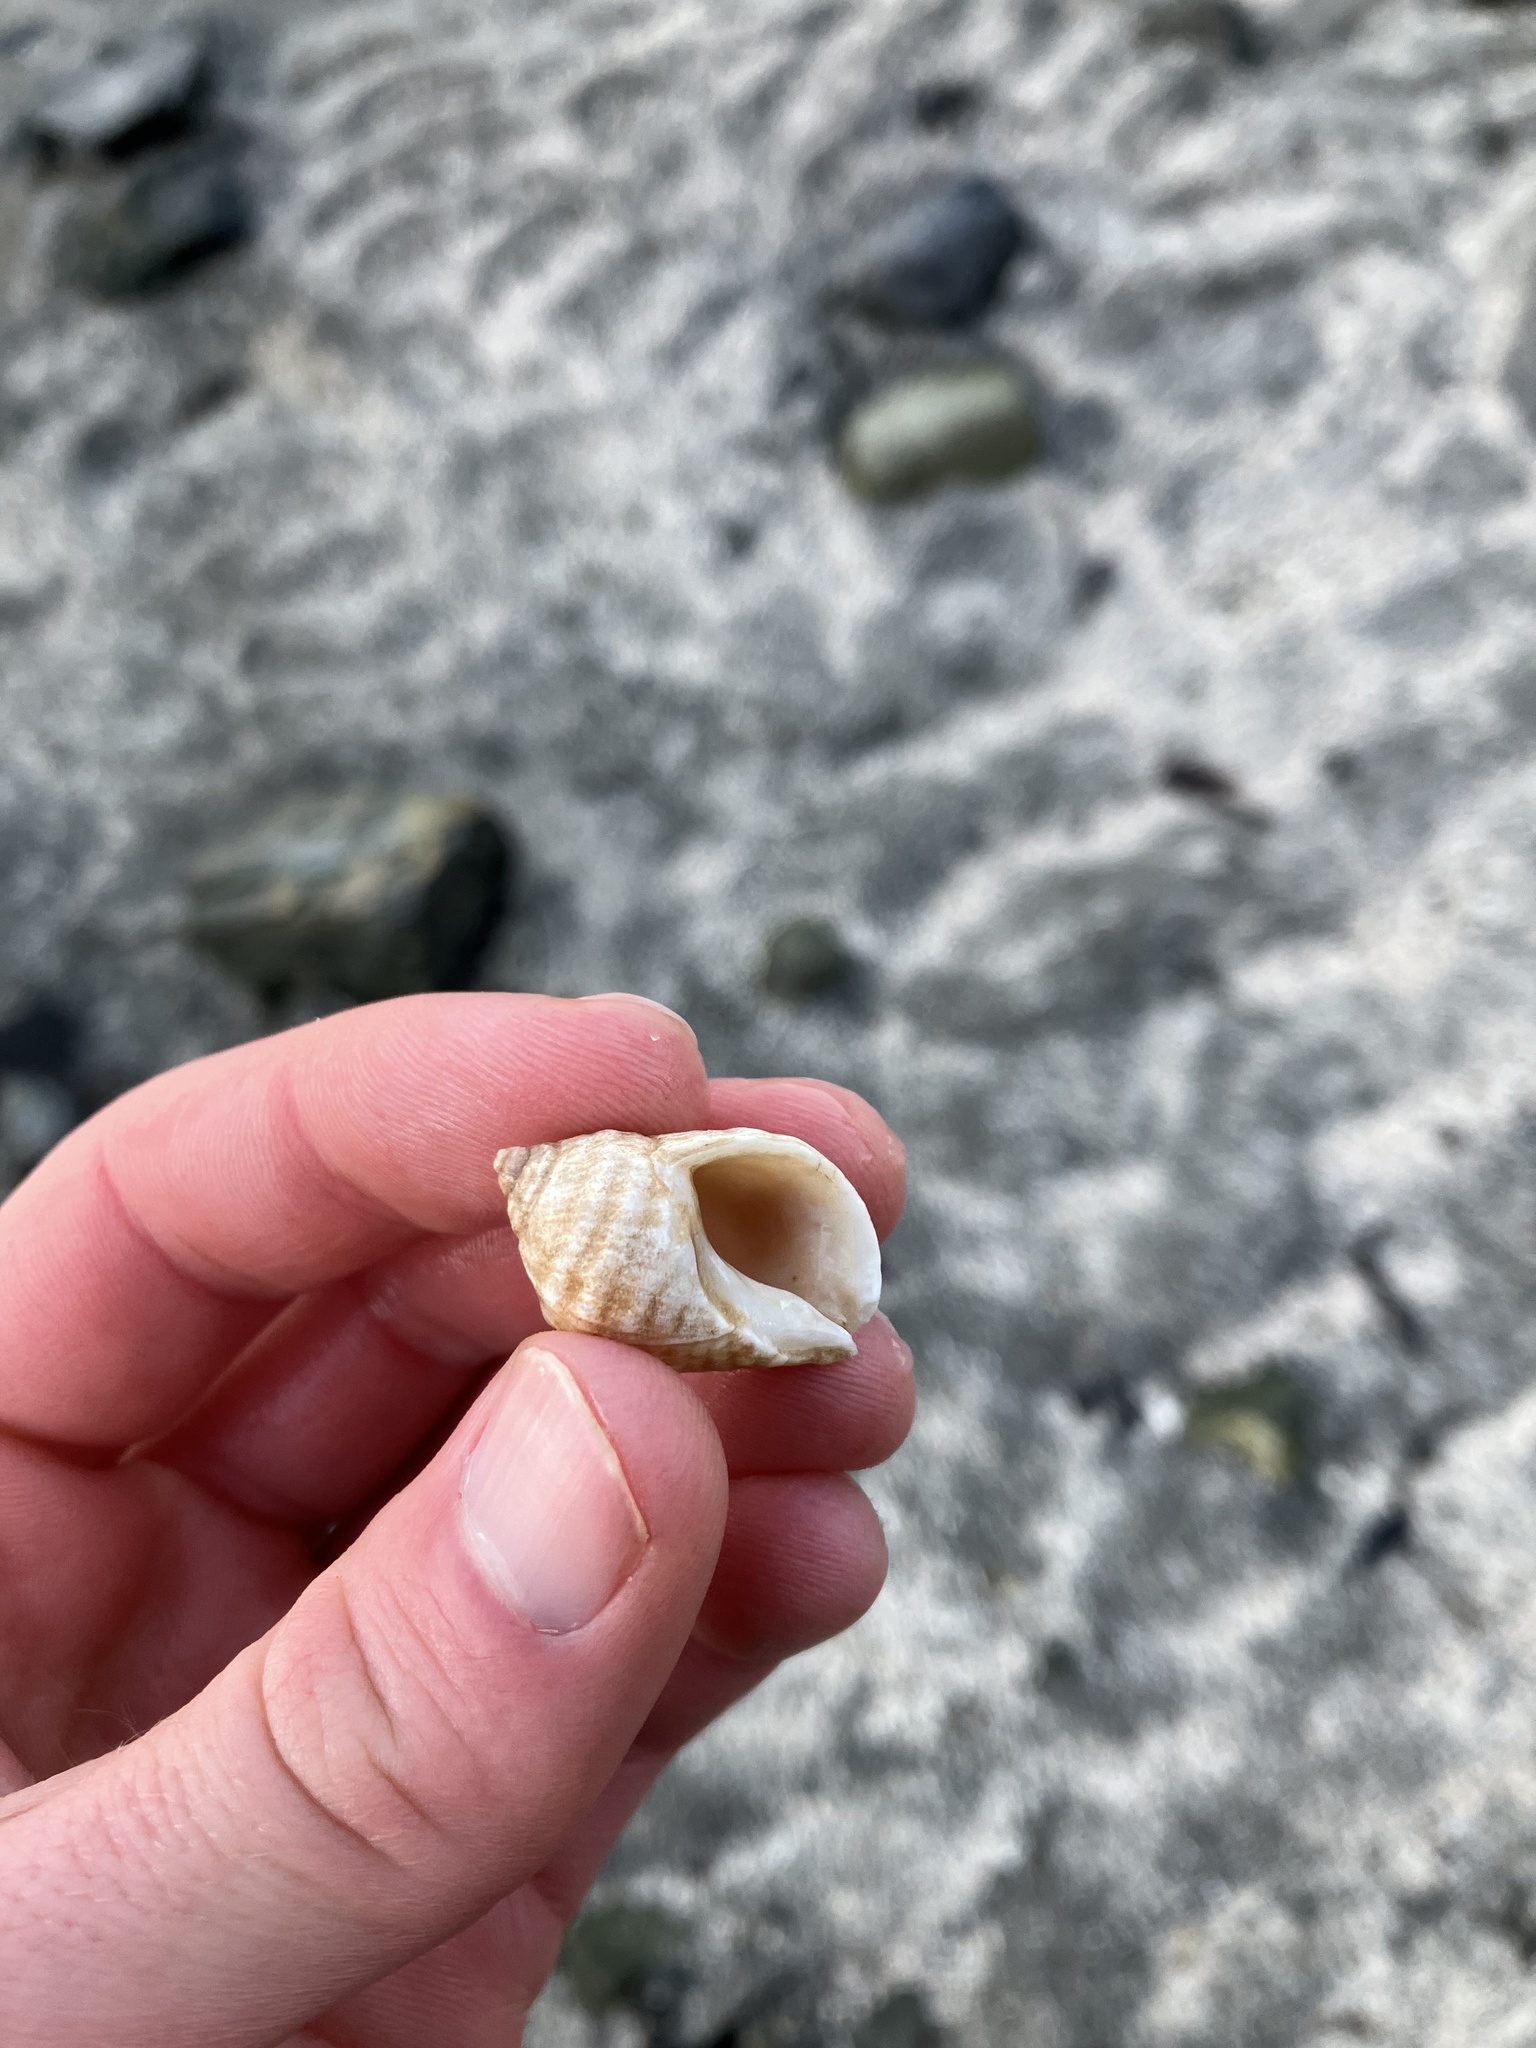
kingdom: Animalia
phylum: Mollusca
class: Gastropoda
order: Neogastropoda
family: Muricidae
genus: Nucella
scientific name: Nucella lapillus
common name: Dog whelk
